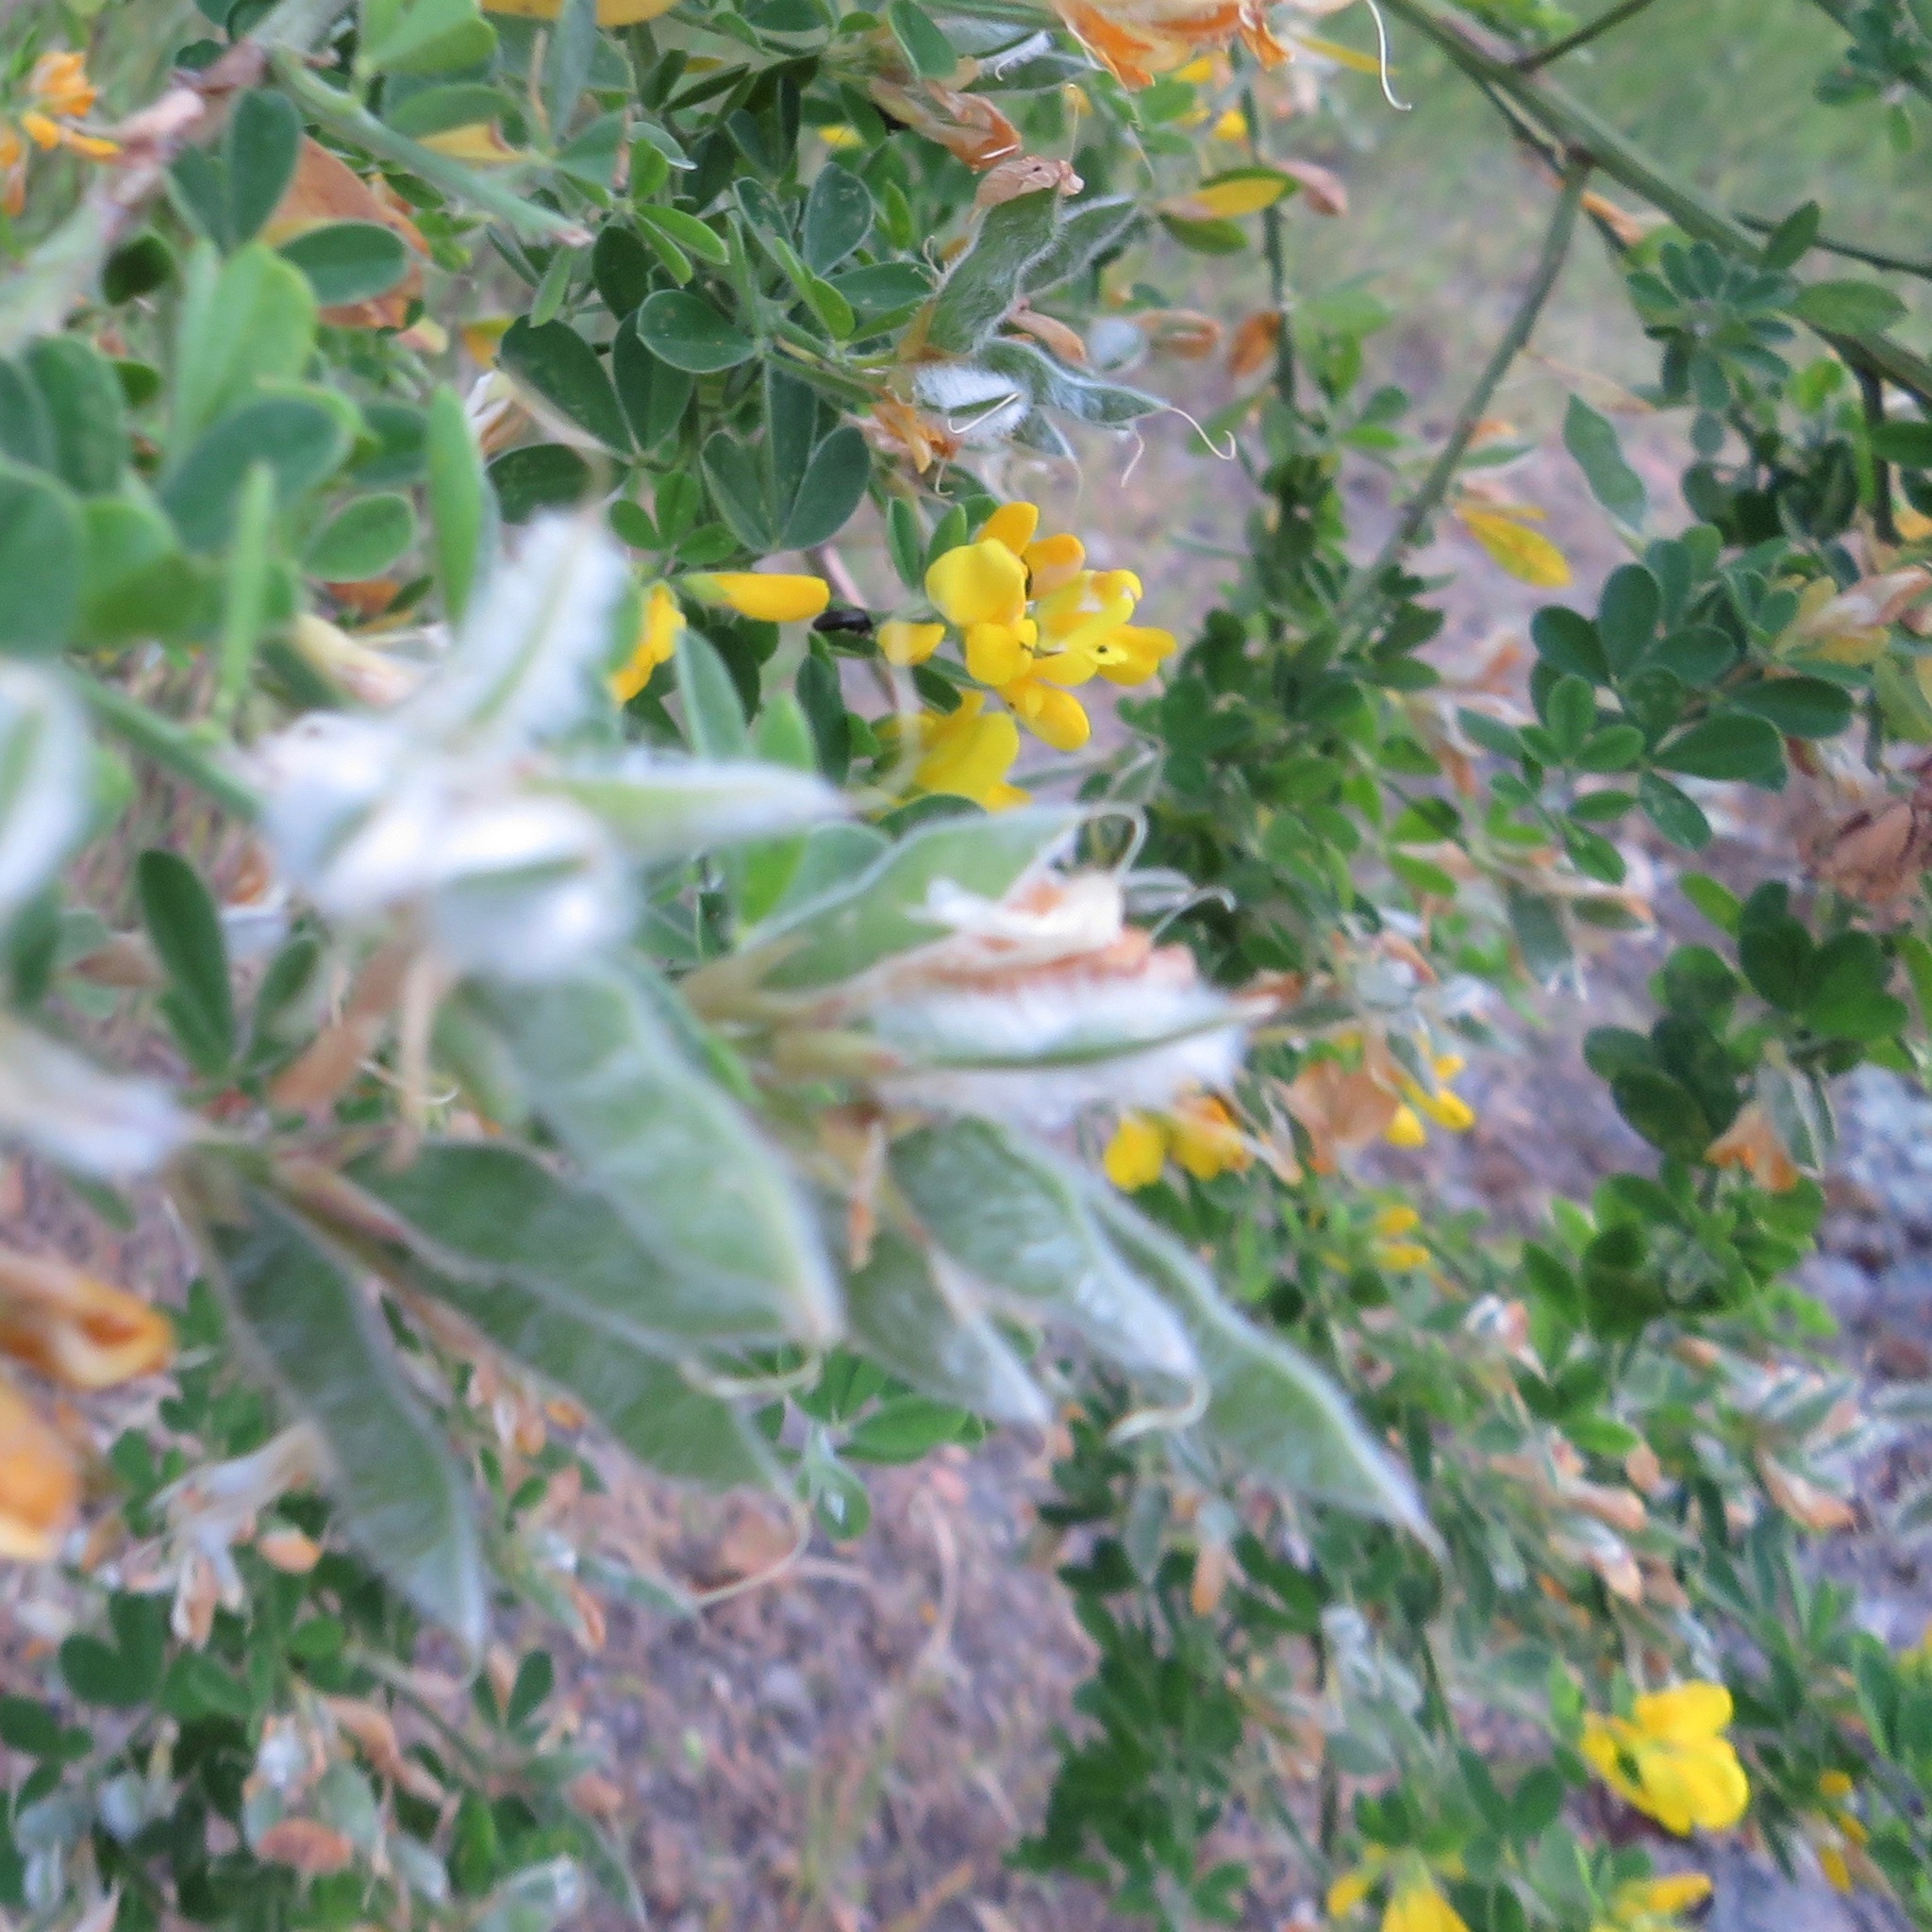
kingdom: Plantae
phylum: Tracheophyta
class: Magnoliopsida
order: Fabales
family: Fabaceae
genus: Genista
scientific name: Genista monspessulana
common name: Montpellier broom
